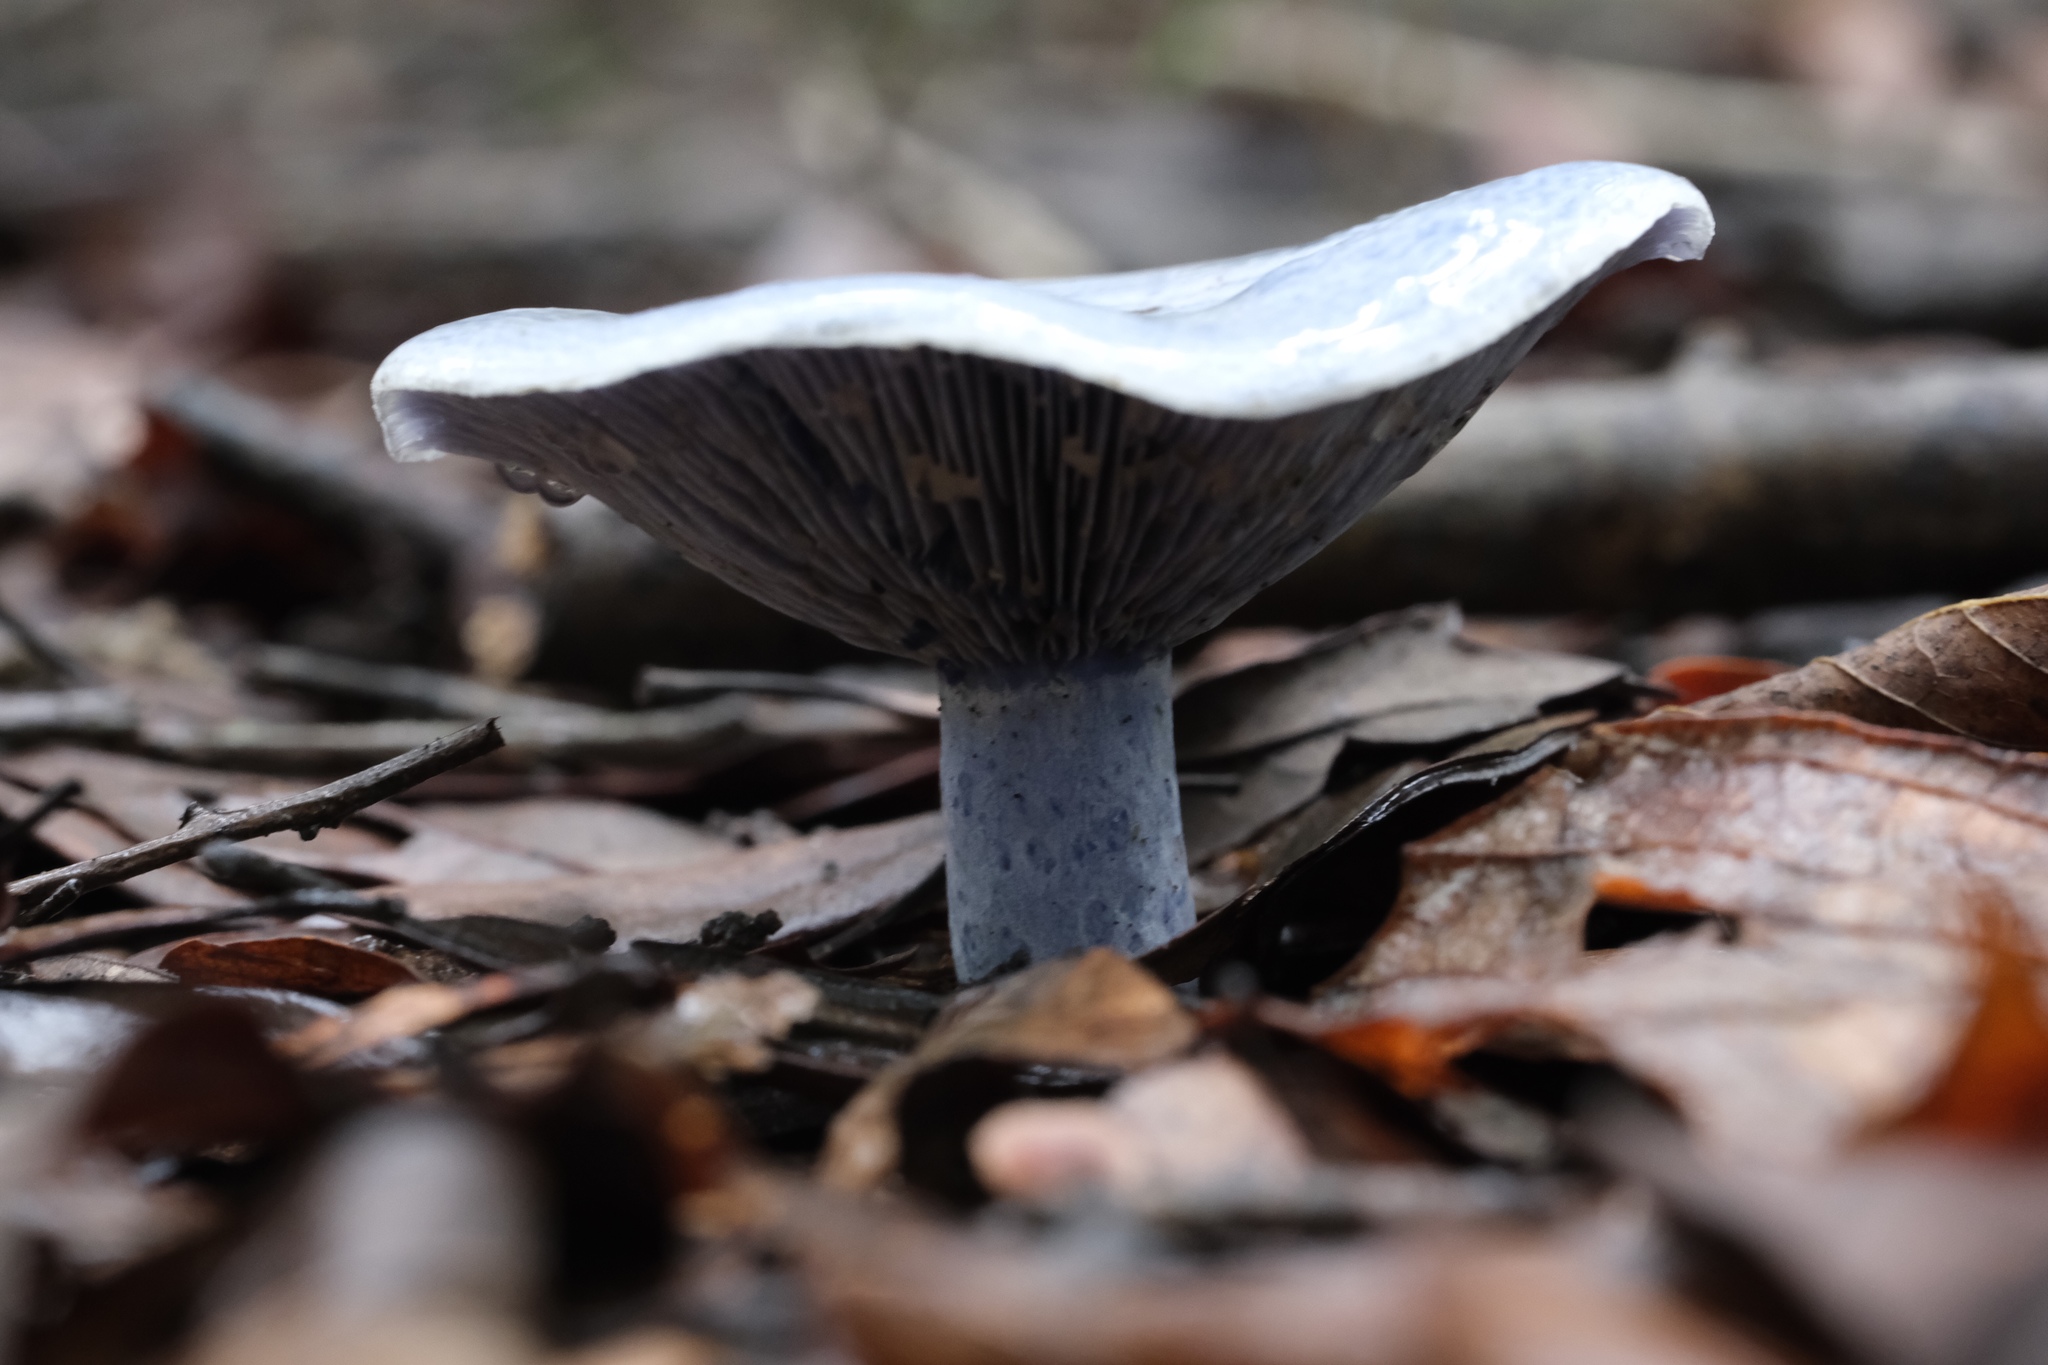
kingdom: Fungi
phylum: Basidiomycota
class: Agaricomycetes
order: Russulales
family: Russulaceae
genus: Lactarius
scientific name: Lactarius indigo
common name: Indigo milk cap
